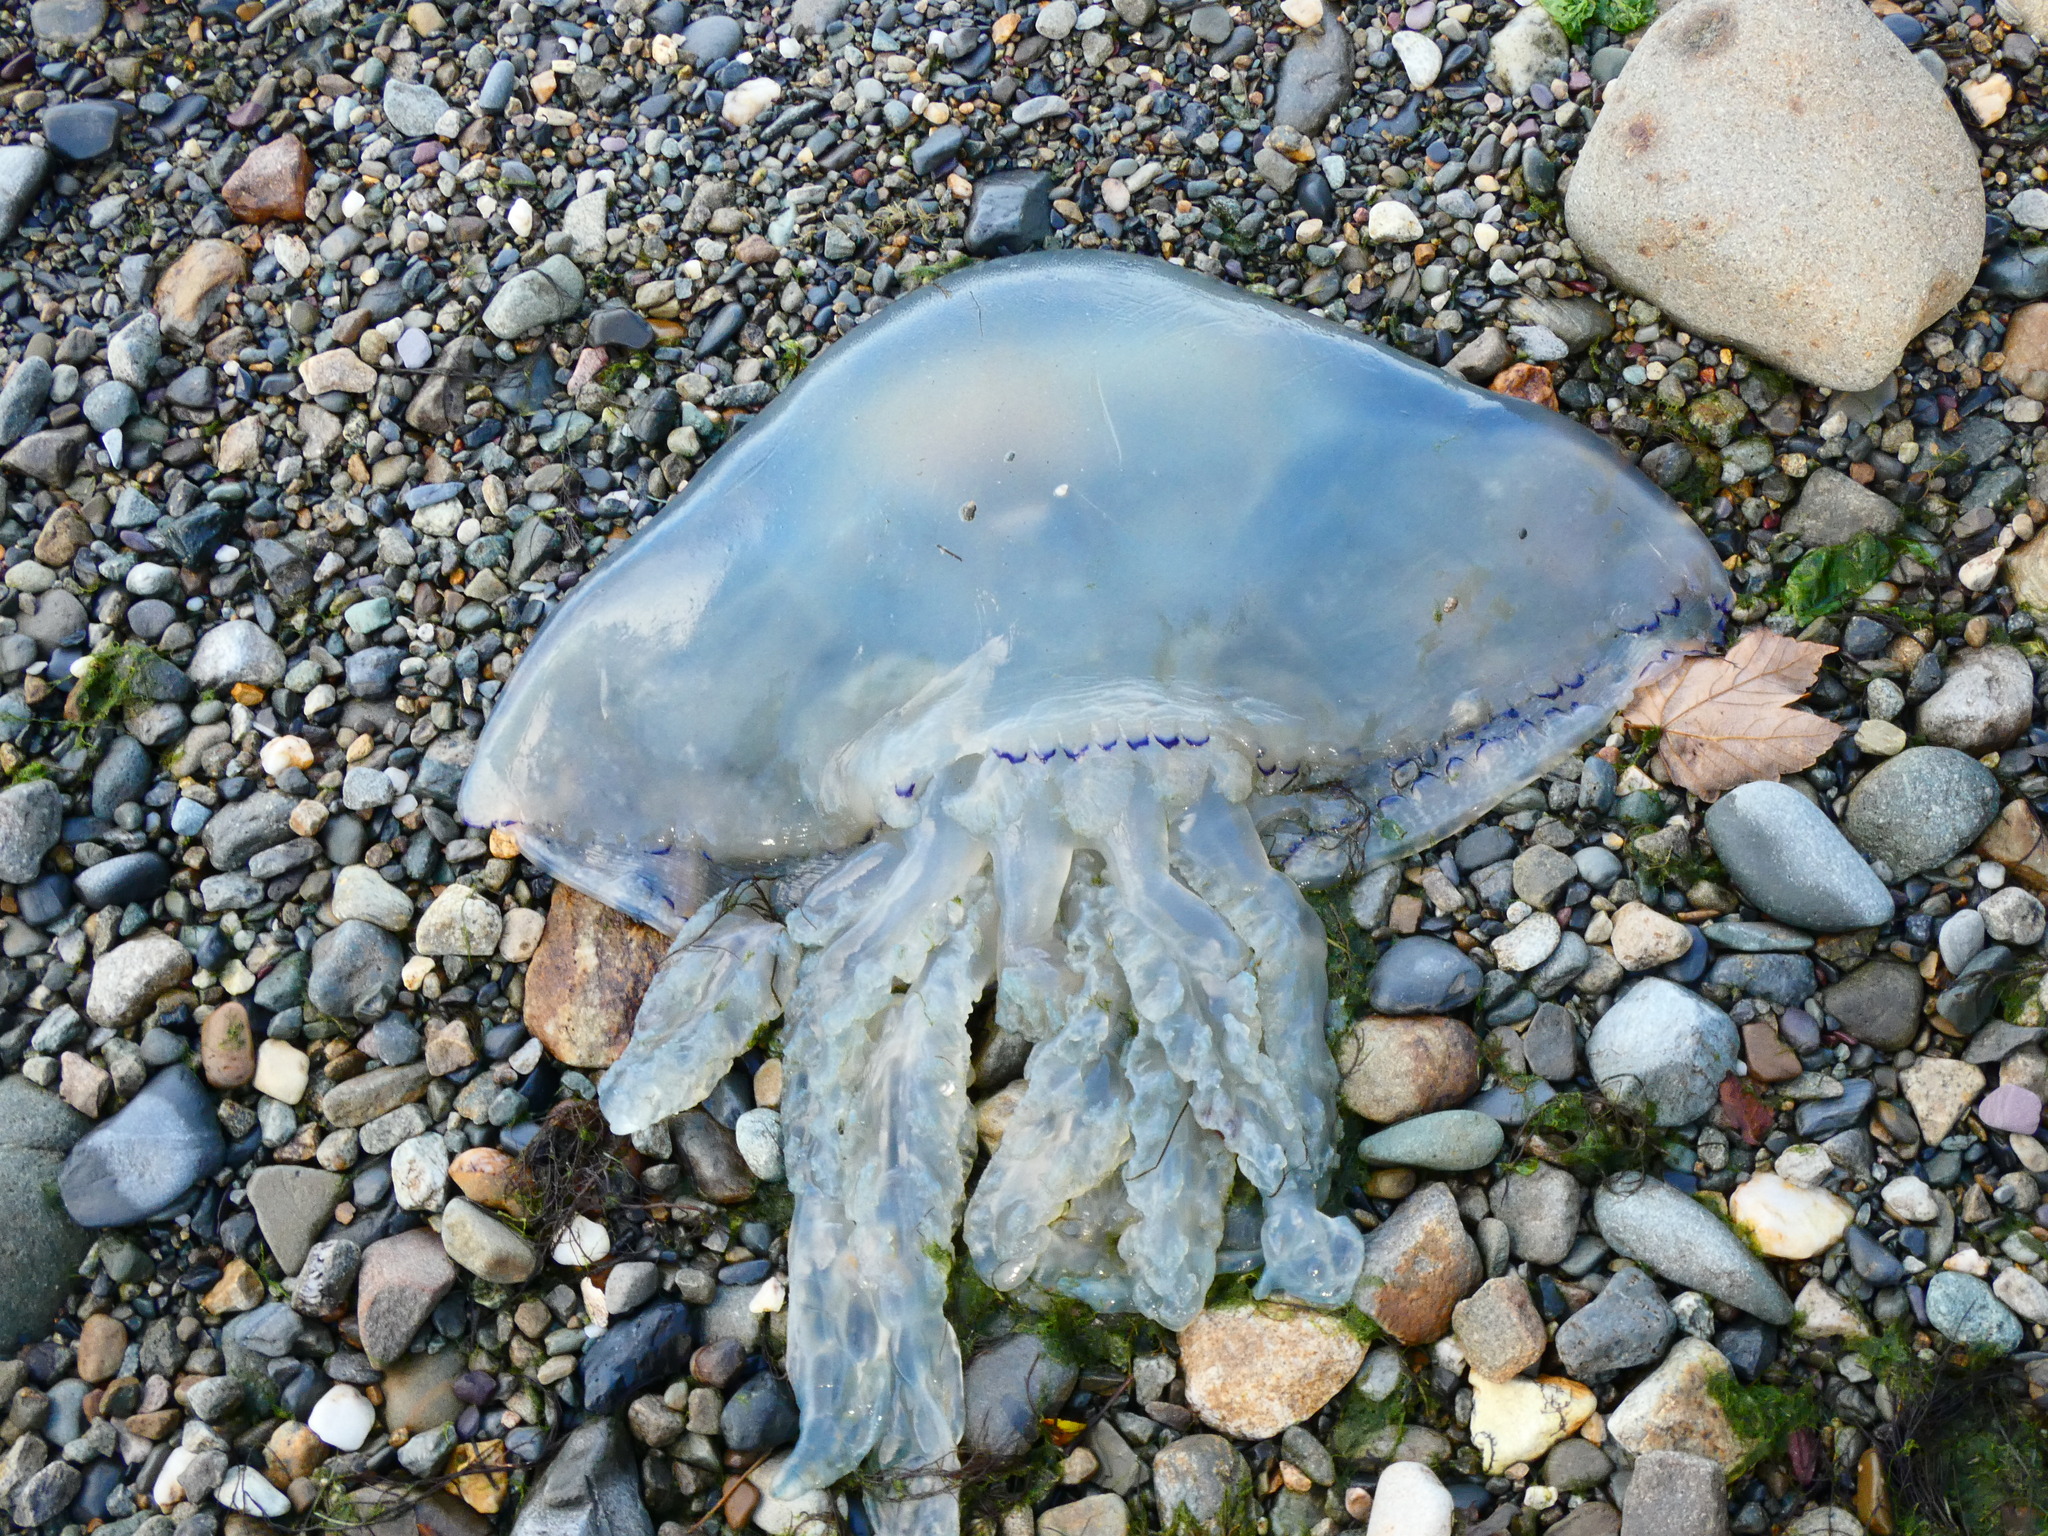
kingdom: Animalia
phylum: Cnidaria
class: Scyphozoa
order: Rhizostomeae
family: Rhizostomatidae
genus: Rhizostoma
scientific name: Rhizostoma octopus
